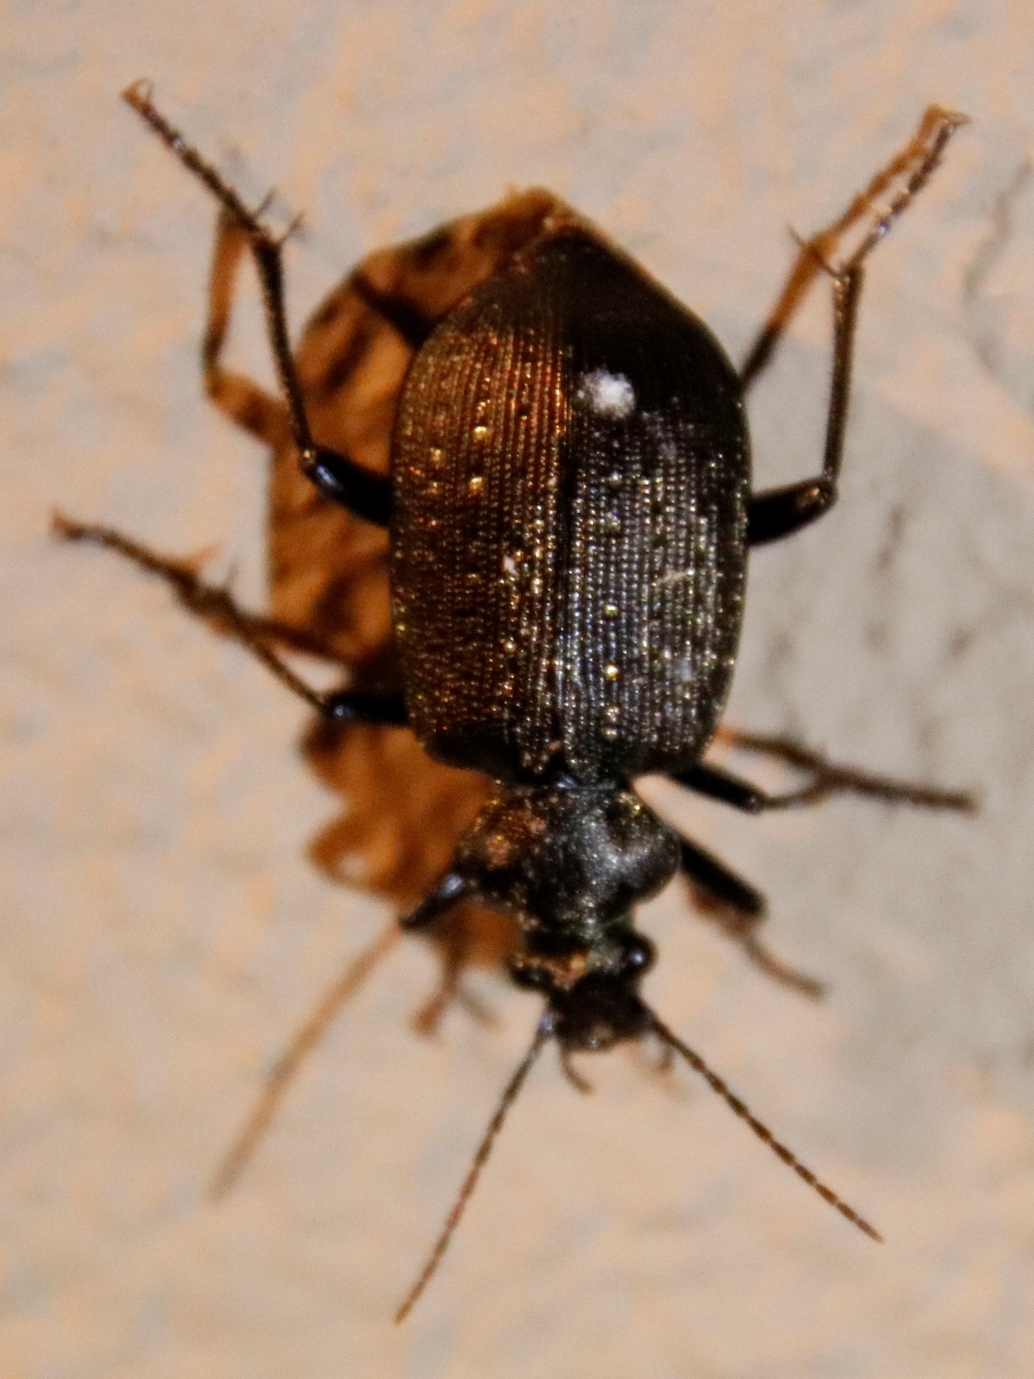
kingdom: Animalia
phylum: Arthropoda
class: Insecta
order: Coleoptera
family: Carabidae
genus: Calosoma
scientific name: Calosoma chlorostictum
